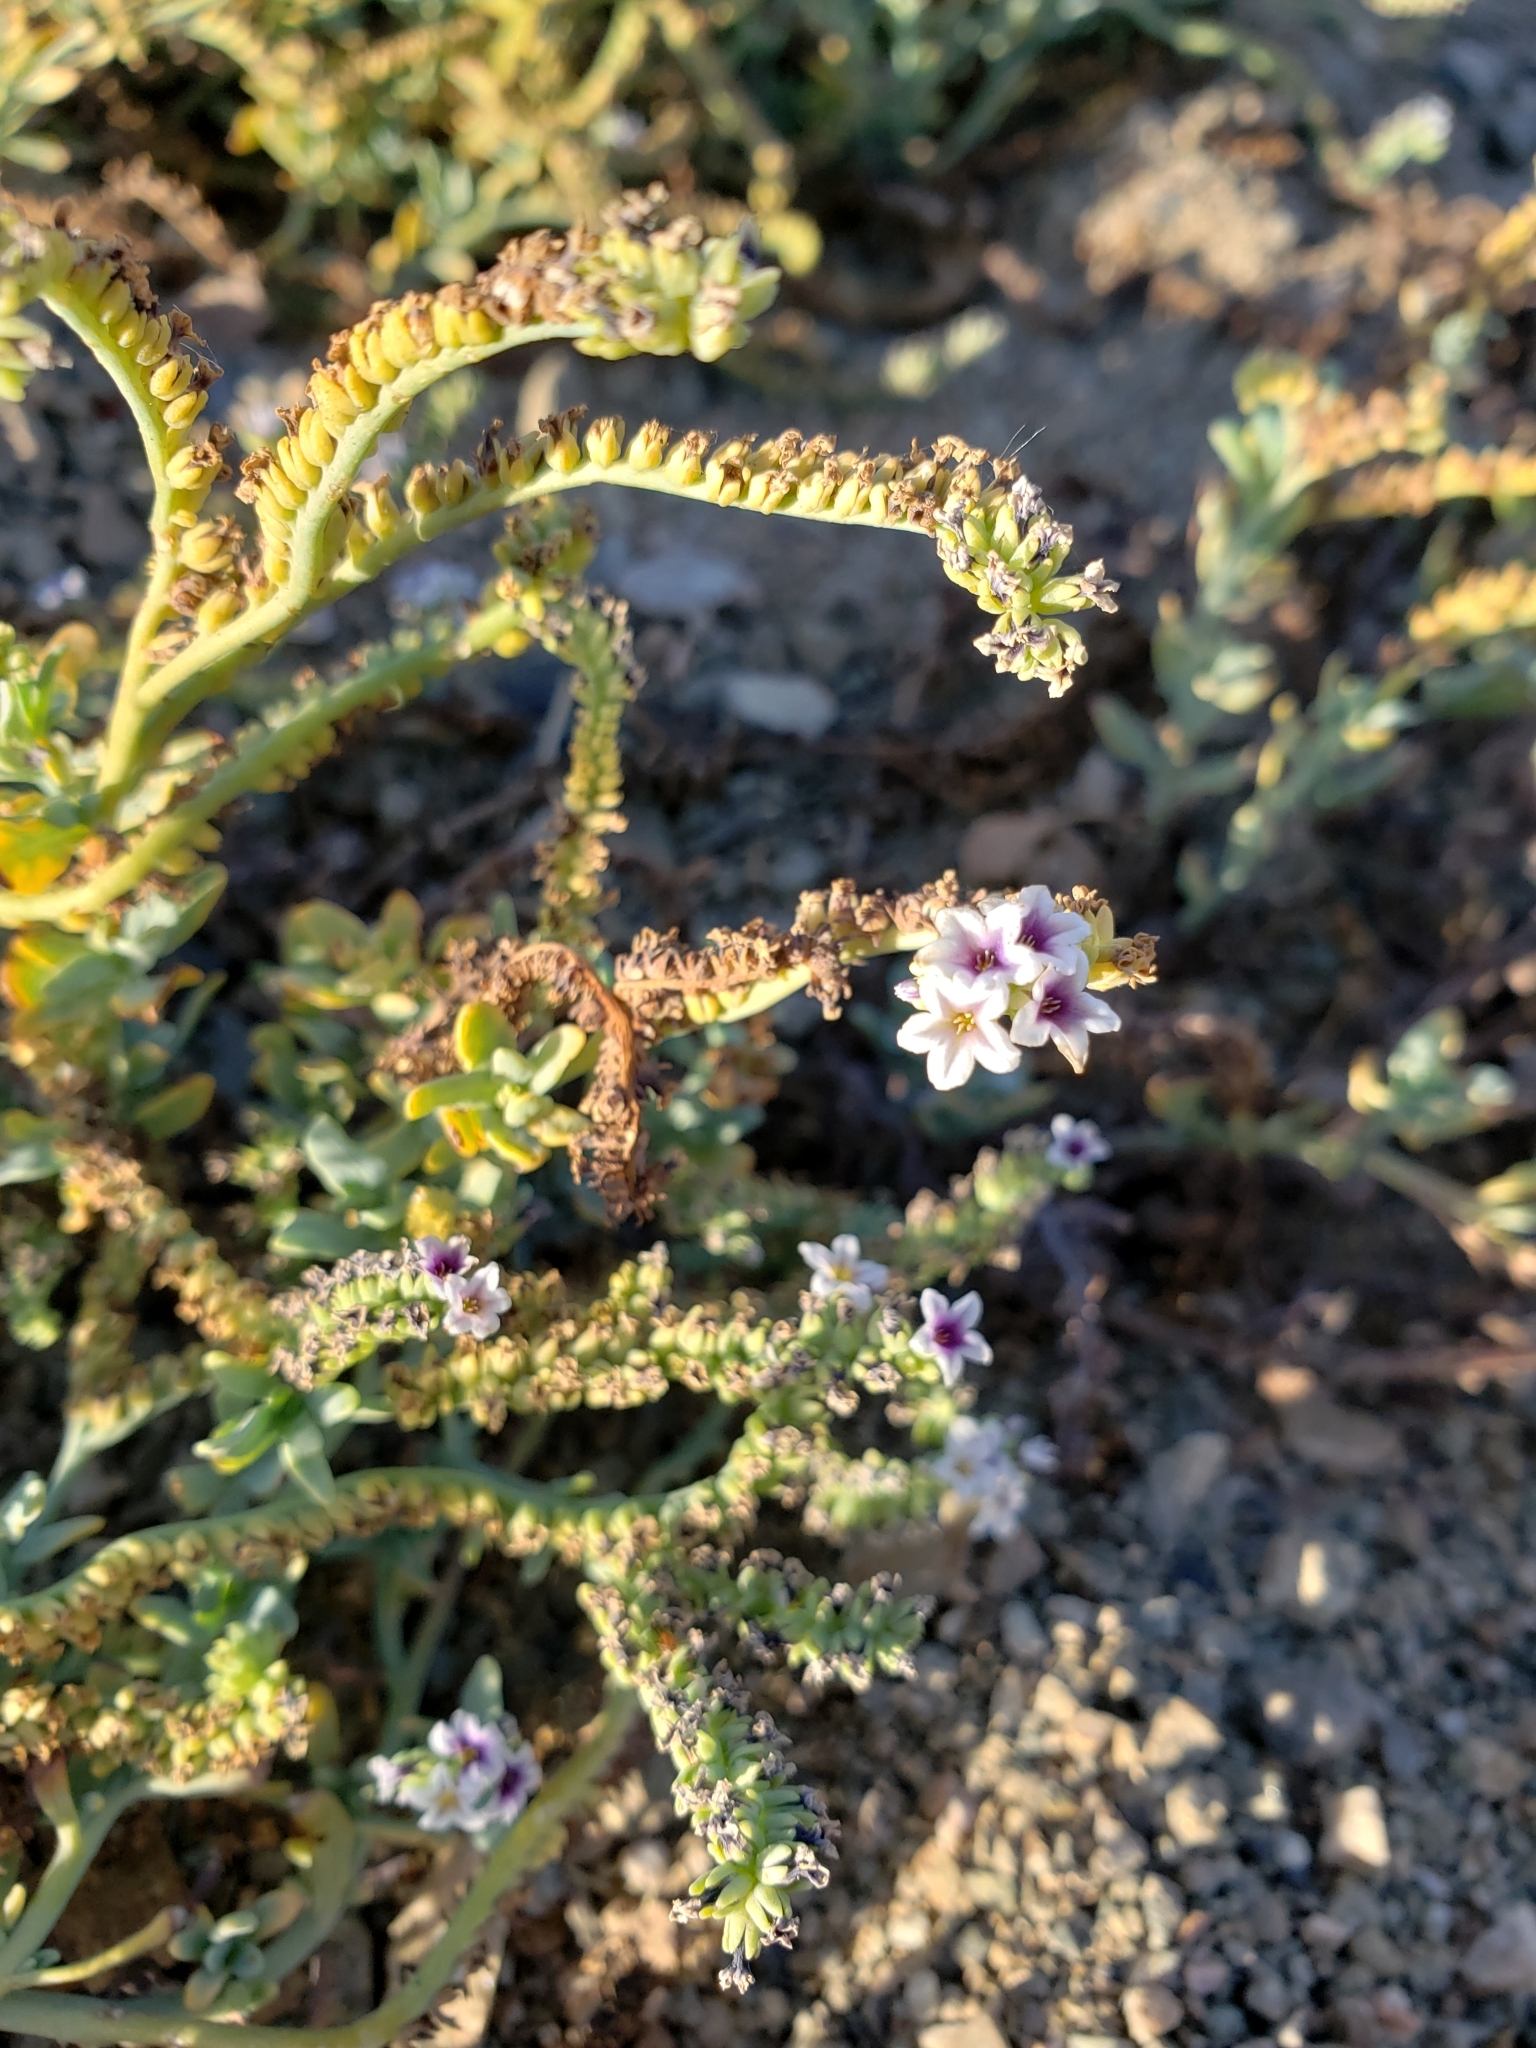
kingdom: Plantae
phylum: Tracheophyta
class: Magnoliopsida
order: Boraginales
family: Heliotropiaceae
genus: Heliotropium
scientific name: Heliotropium curassavicum
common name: Seaside heliotrope
